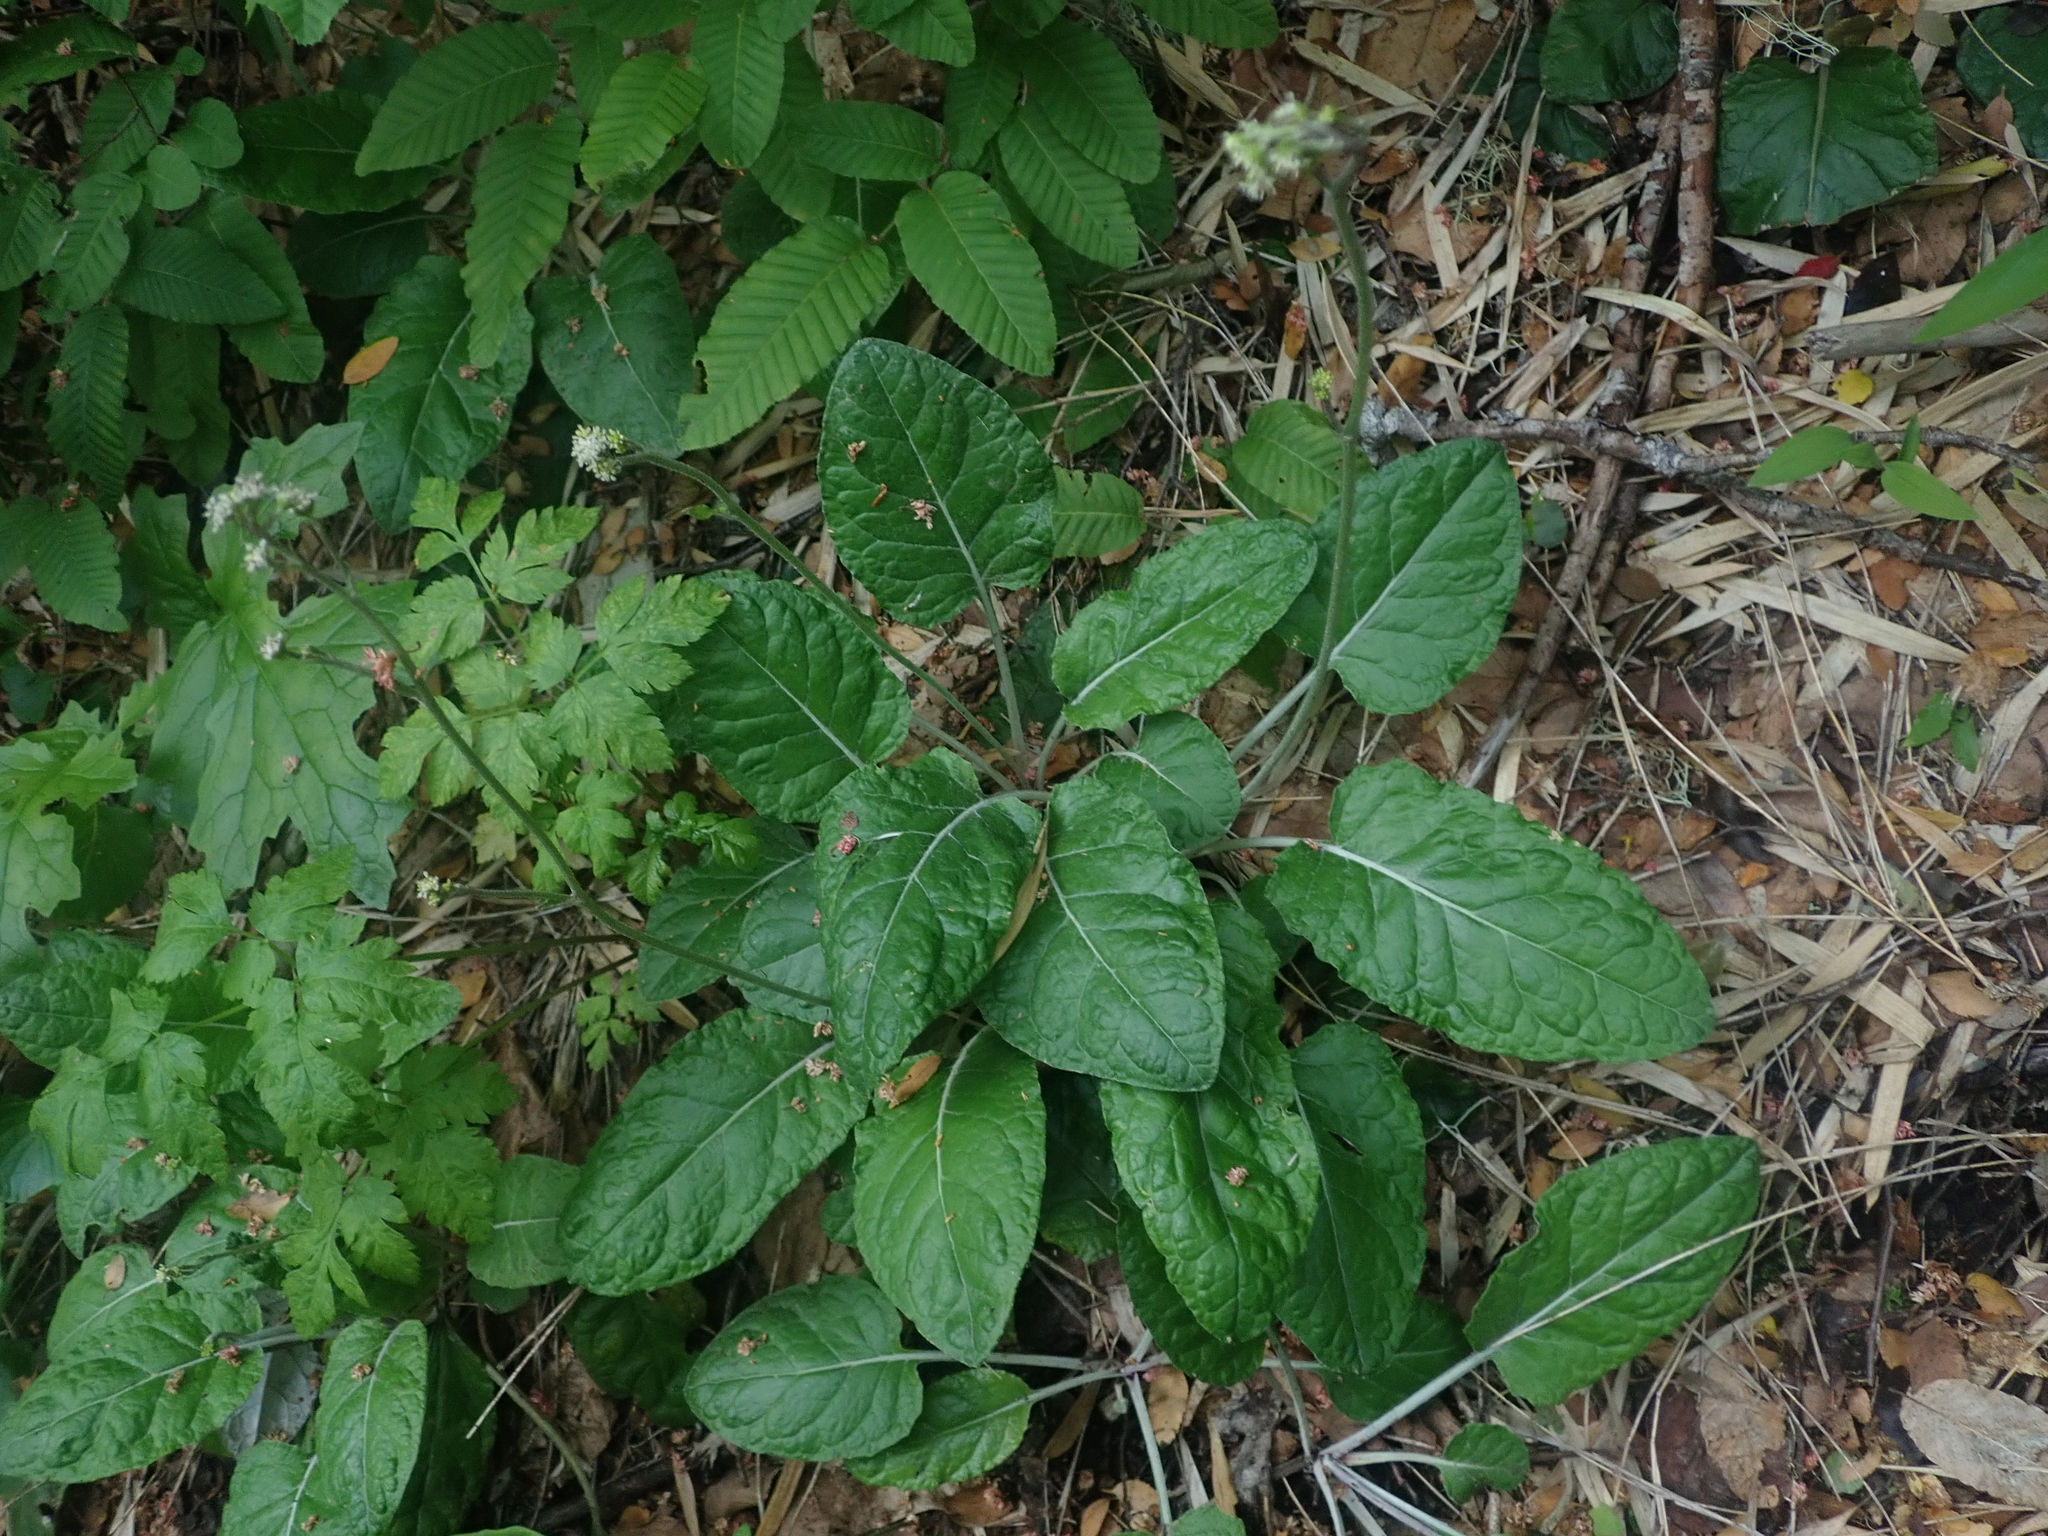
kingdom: Plantae
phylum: Tracheophyta
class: Magnoliopsida
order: Asterales
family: Asteraceae
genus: Adenocaulon
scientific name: Adenocaulon chilense
